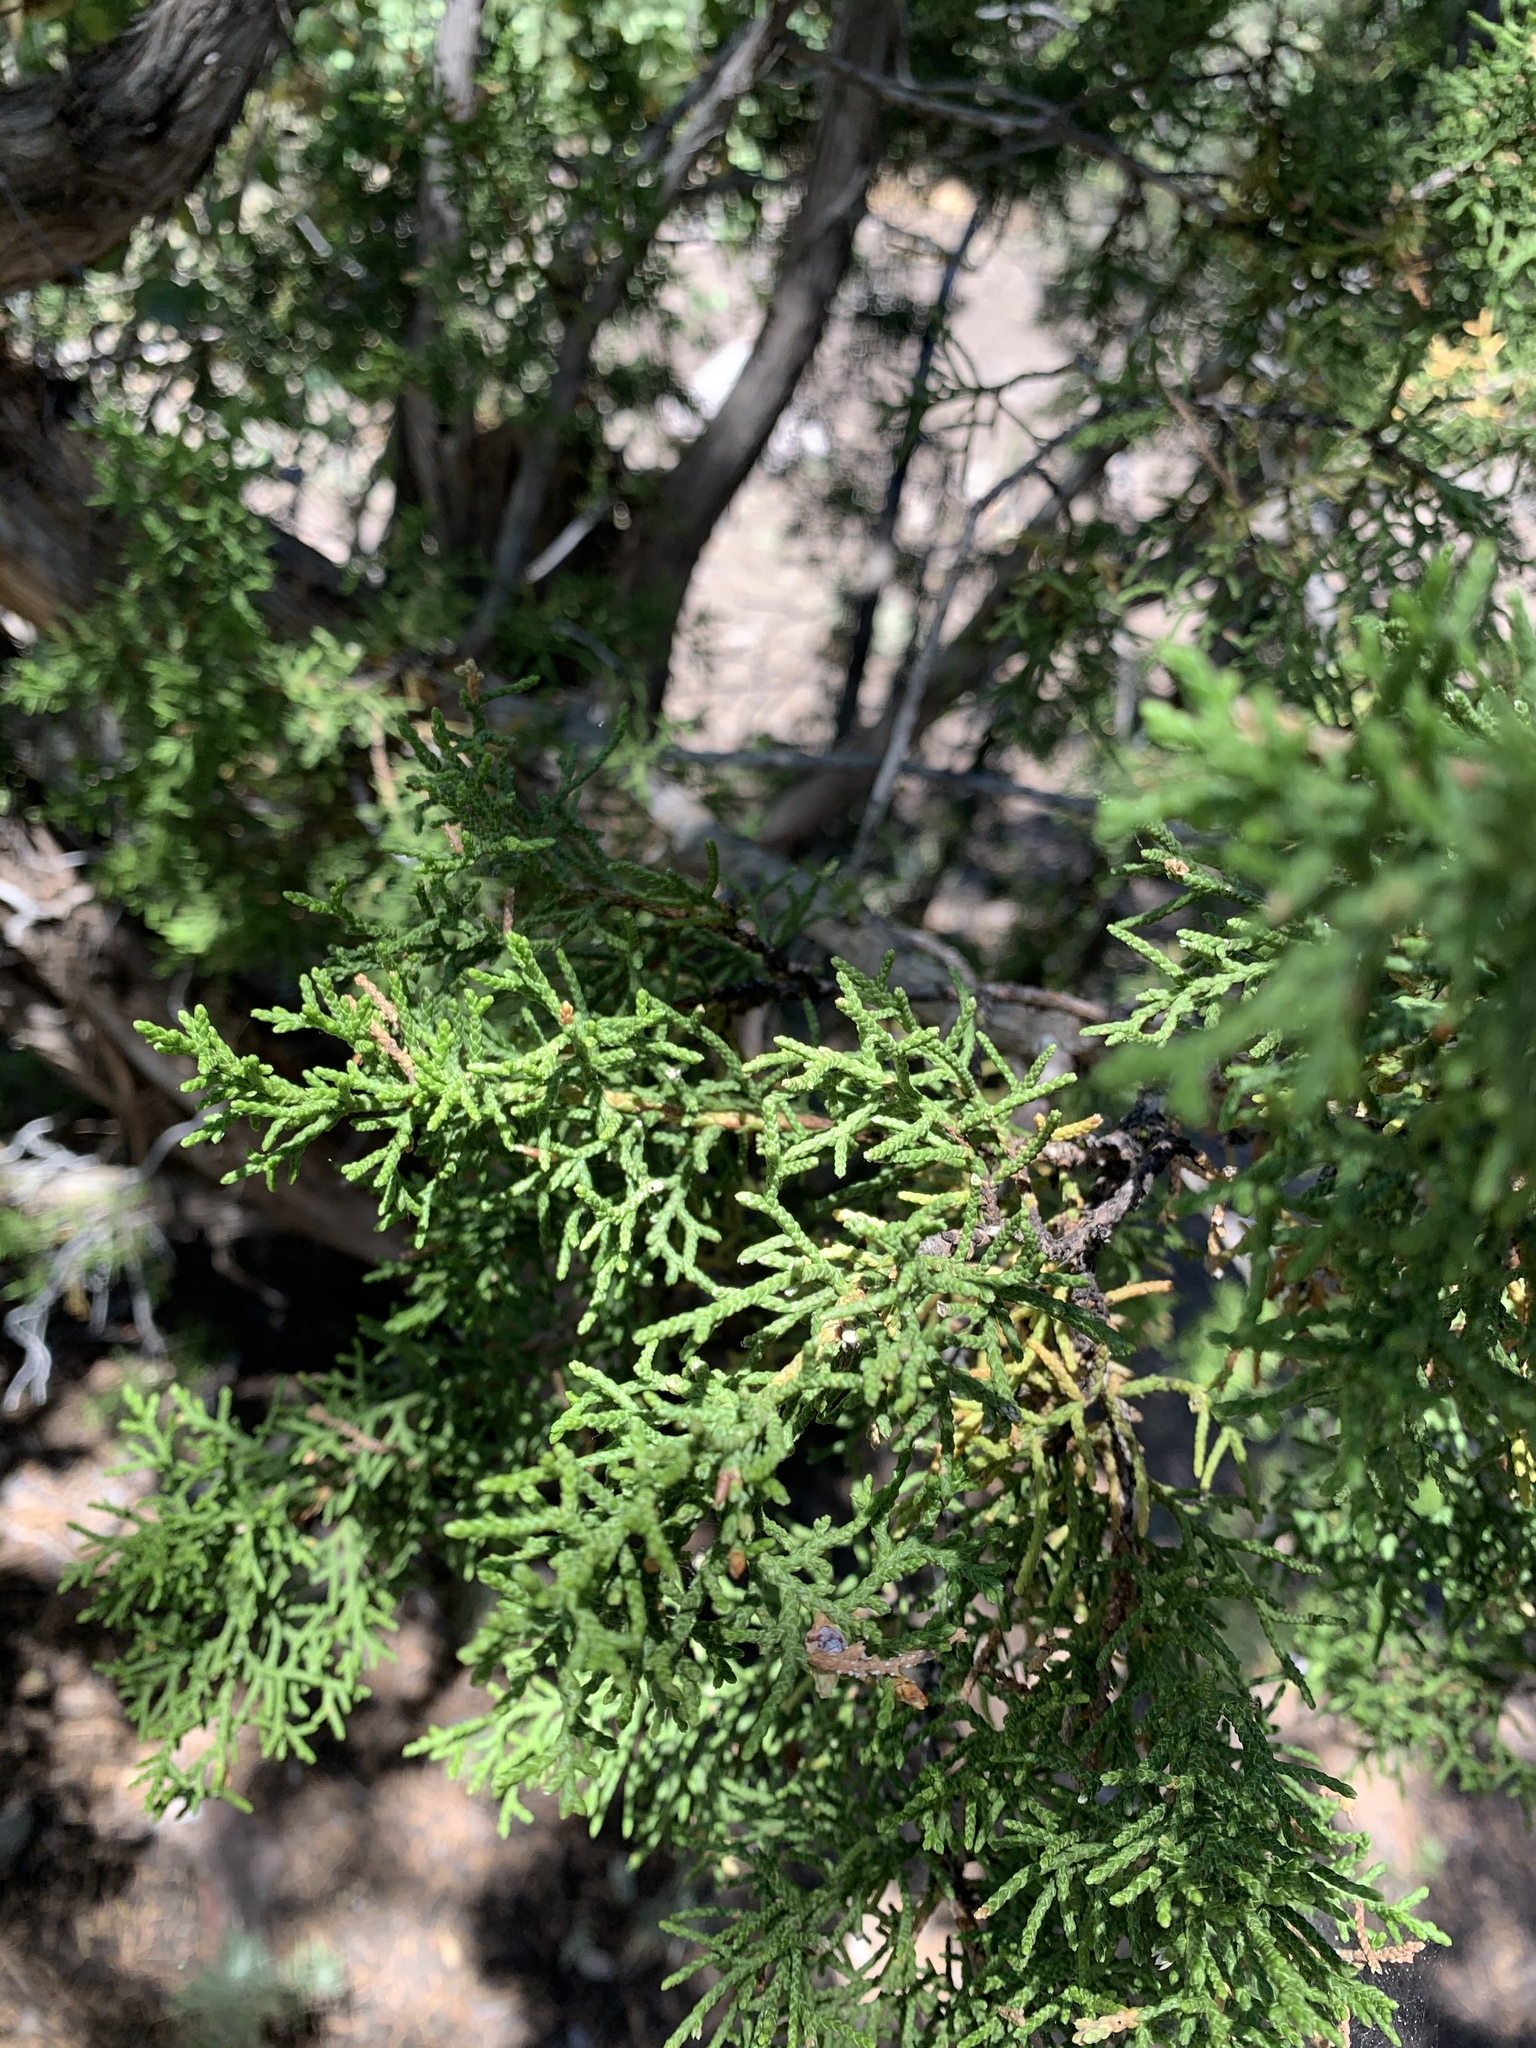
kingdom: Plantae
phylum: Tracheophyta
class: Pinopsida
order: Pinales
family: Cupressaceae
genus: Juniperus
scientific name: Juniperus monosperma
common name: One-seed juniper
